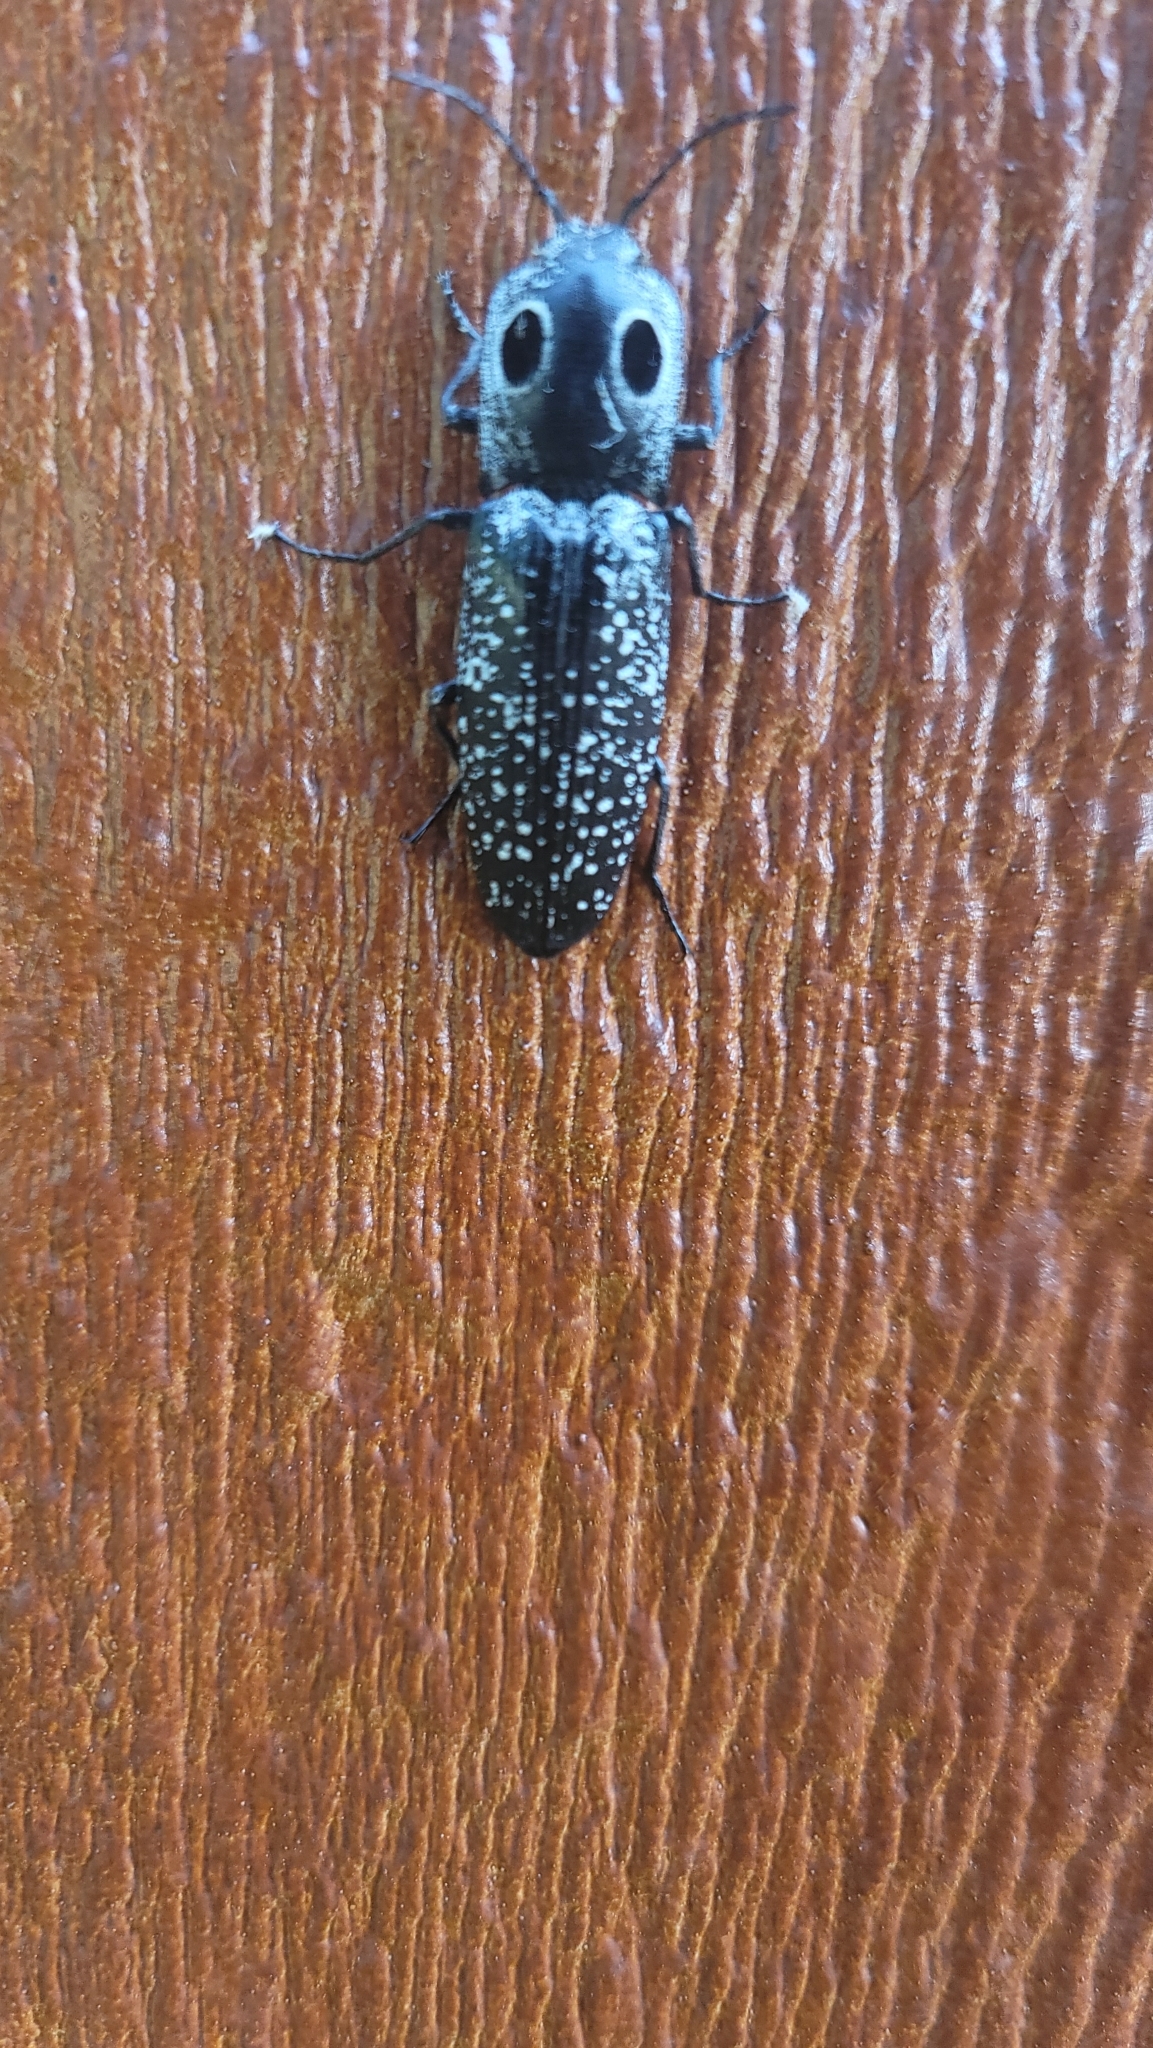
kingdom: Animalia
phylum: Arthropoda
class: Insecta
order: Coleoptera
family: Elateridae
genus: Alaus
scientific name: Alaus oculatus
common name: Eastern eyed click beetle
